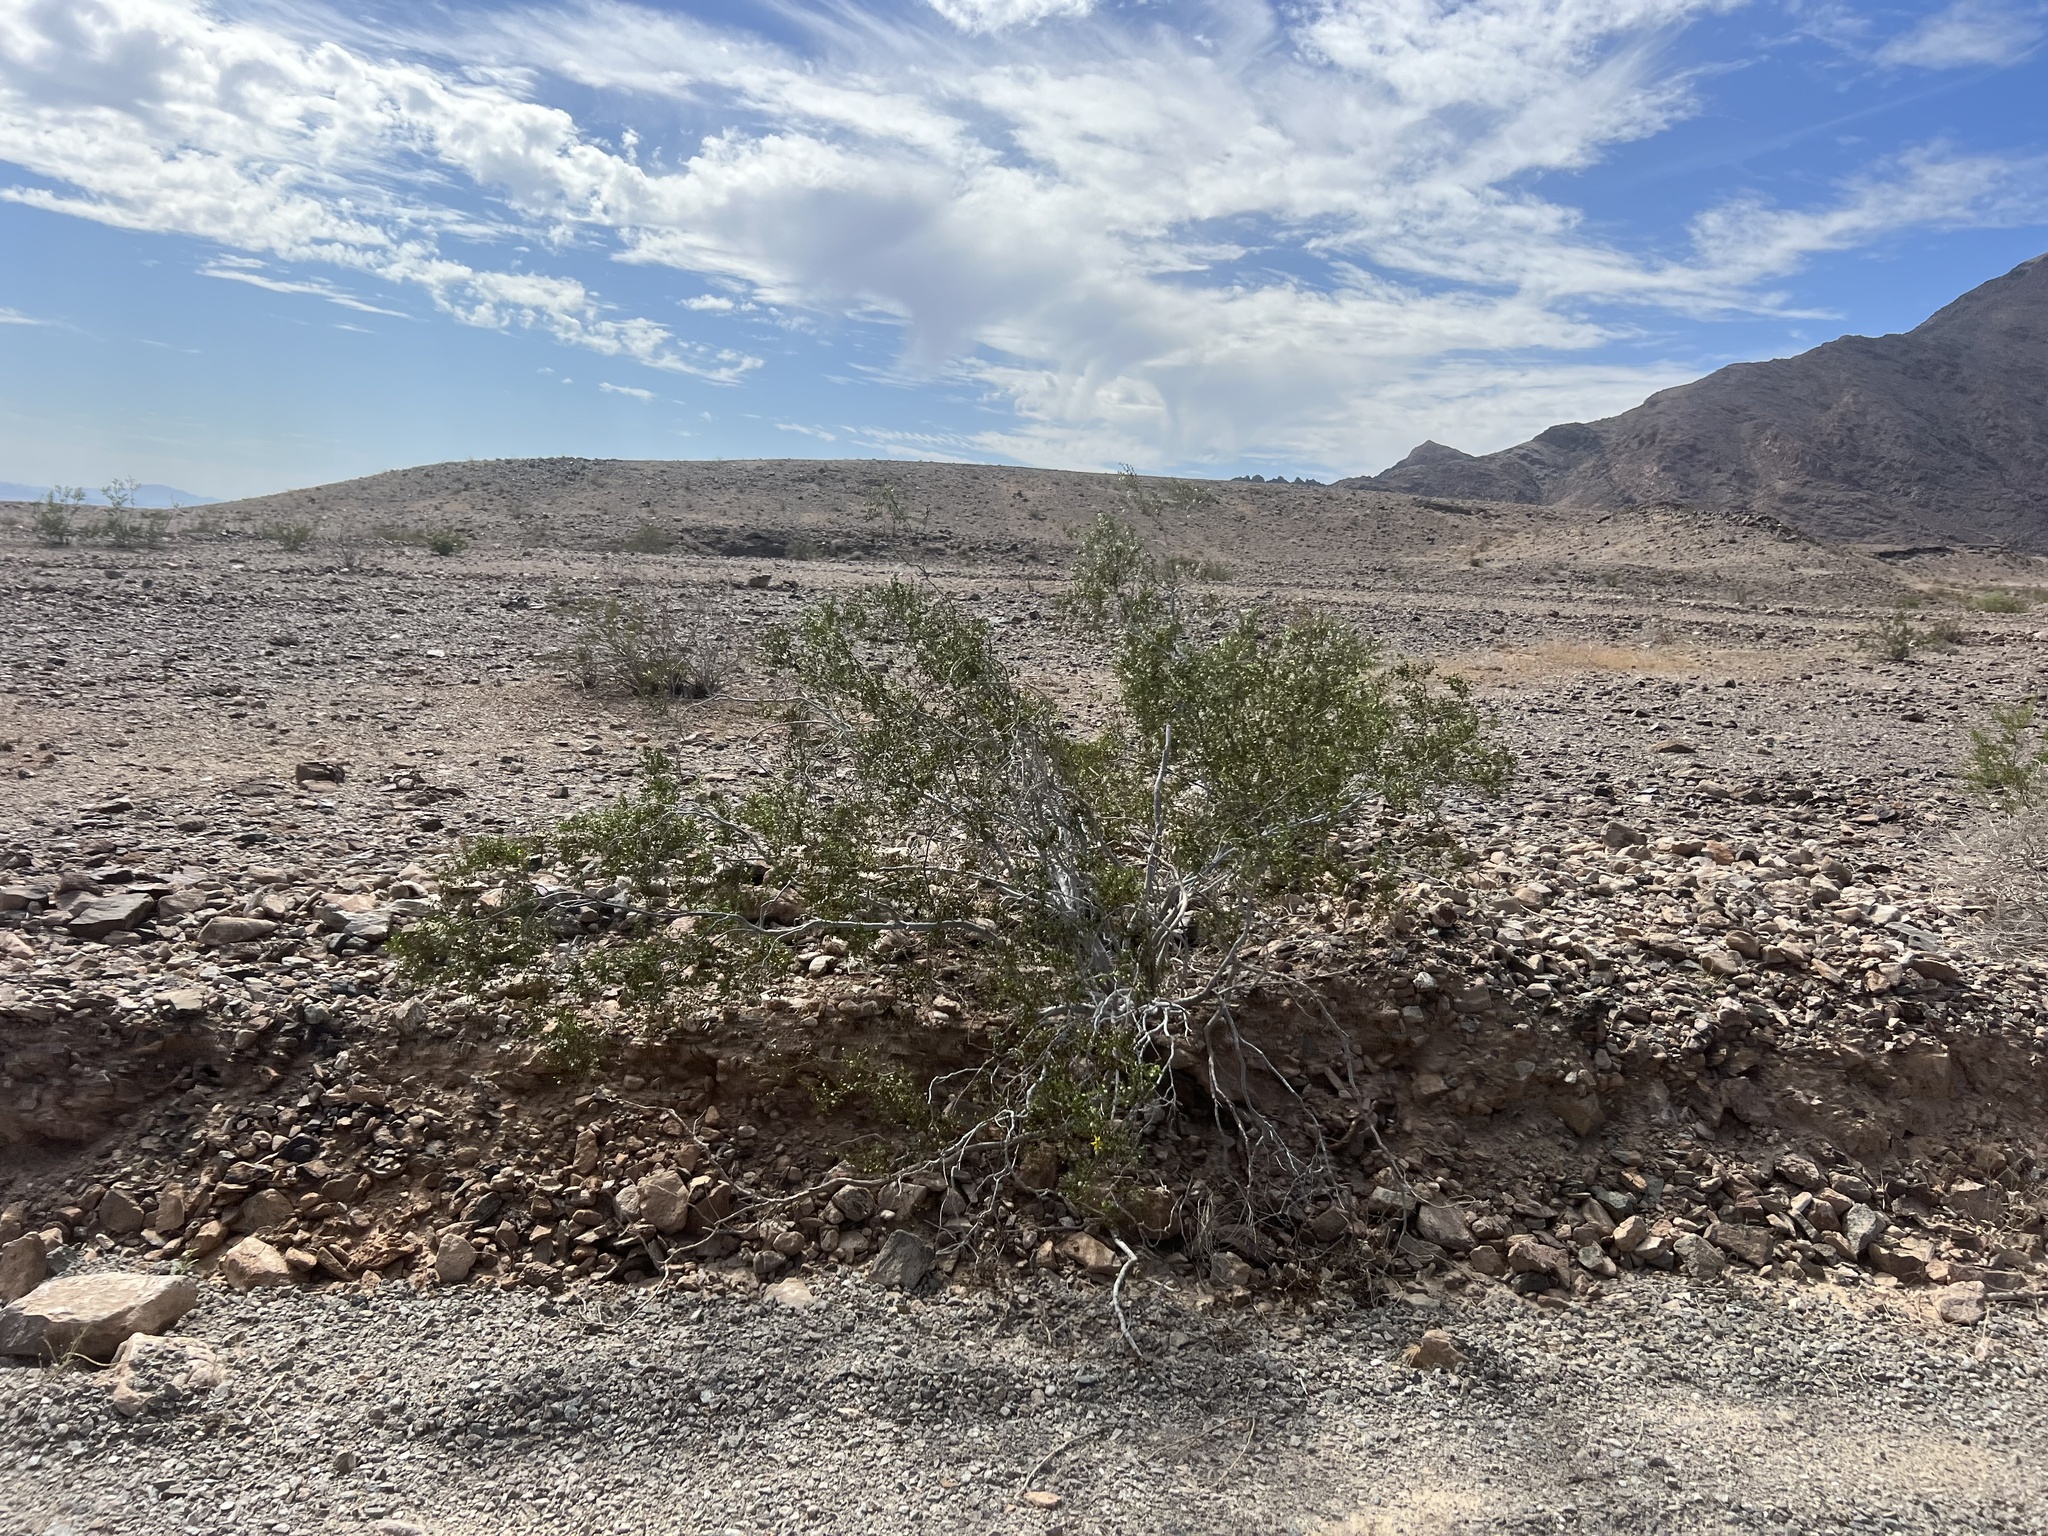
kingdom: Plantae
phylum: Tracheophyta
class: Magnoliopsida
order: Zygophyllales
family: Zygophyllaceae
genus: Larrea
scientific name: Larrea tridentata
